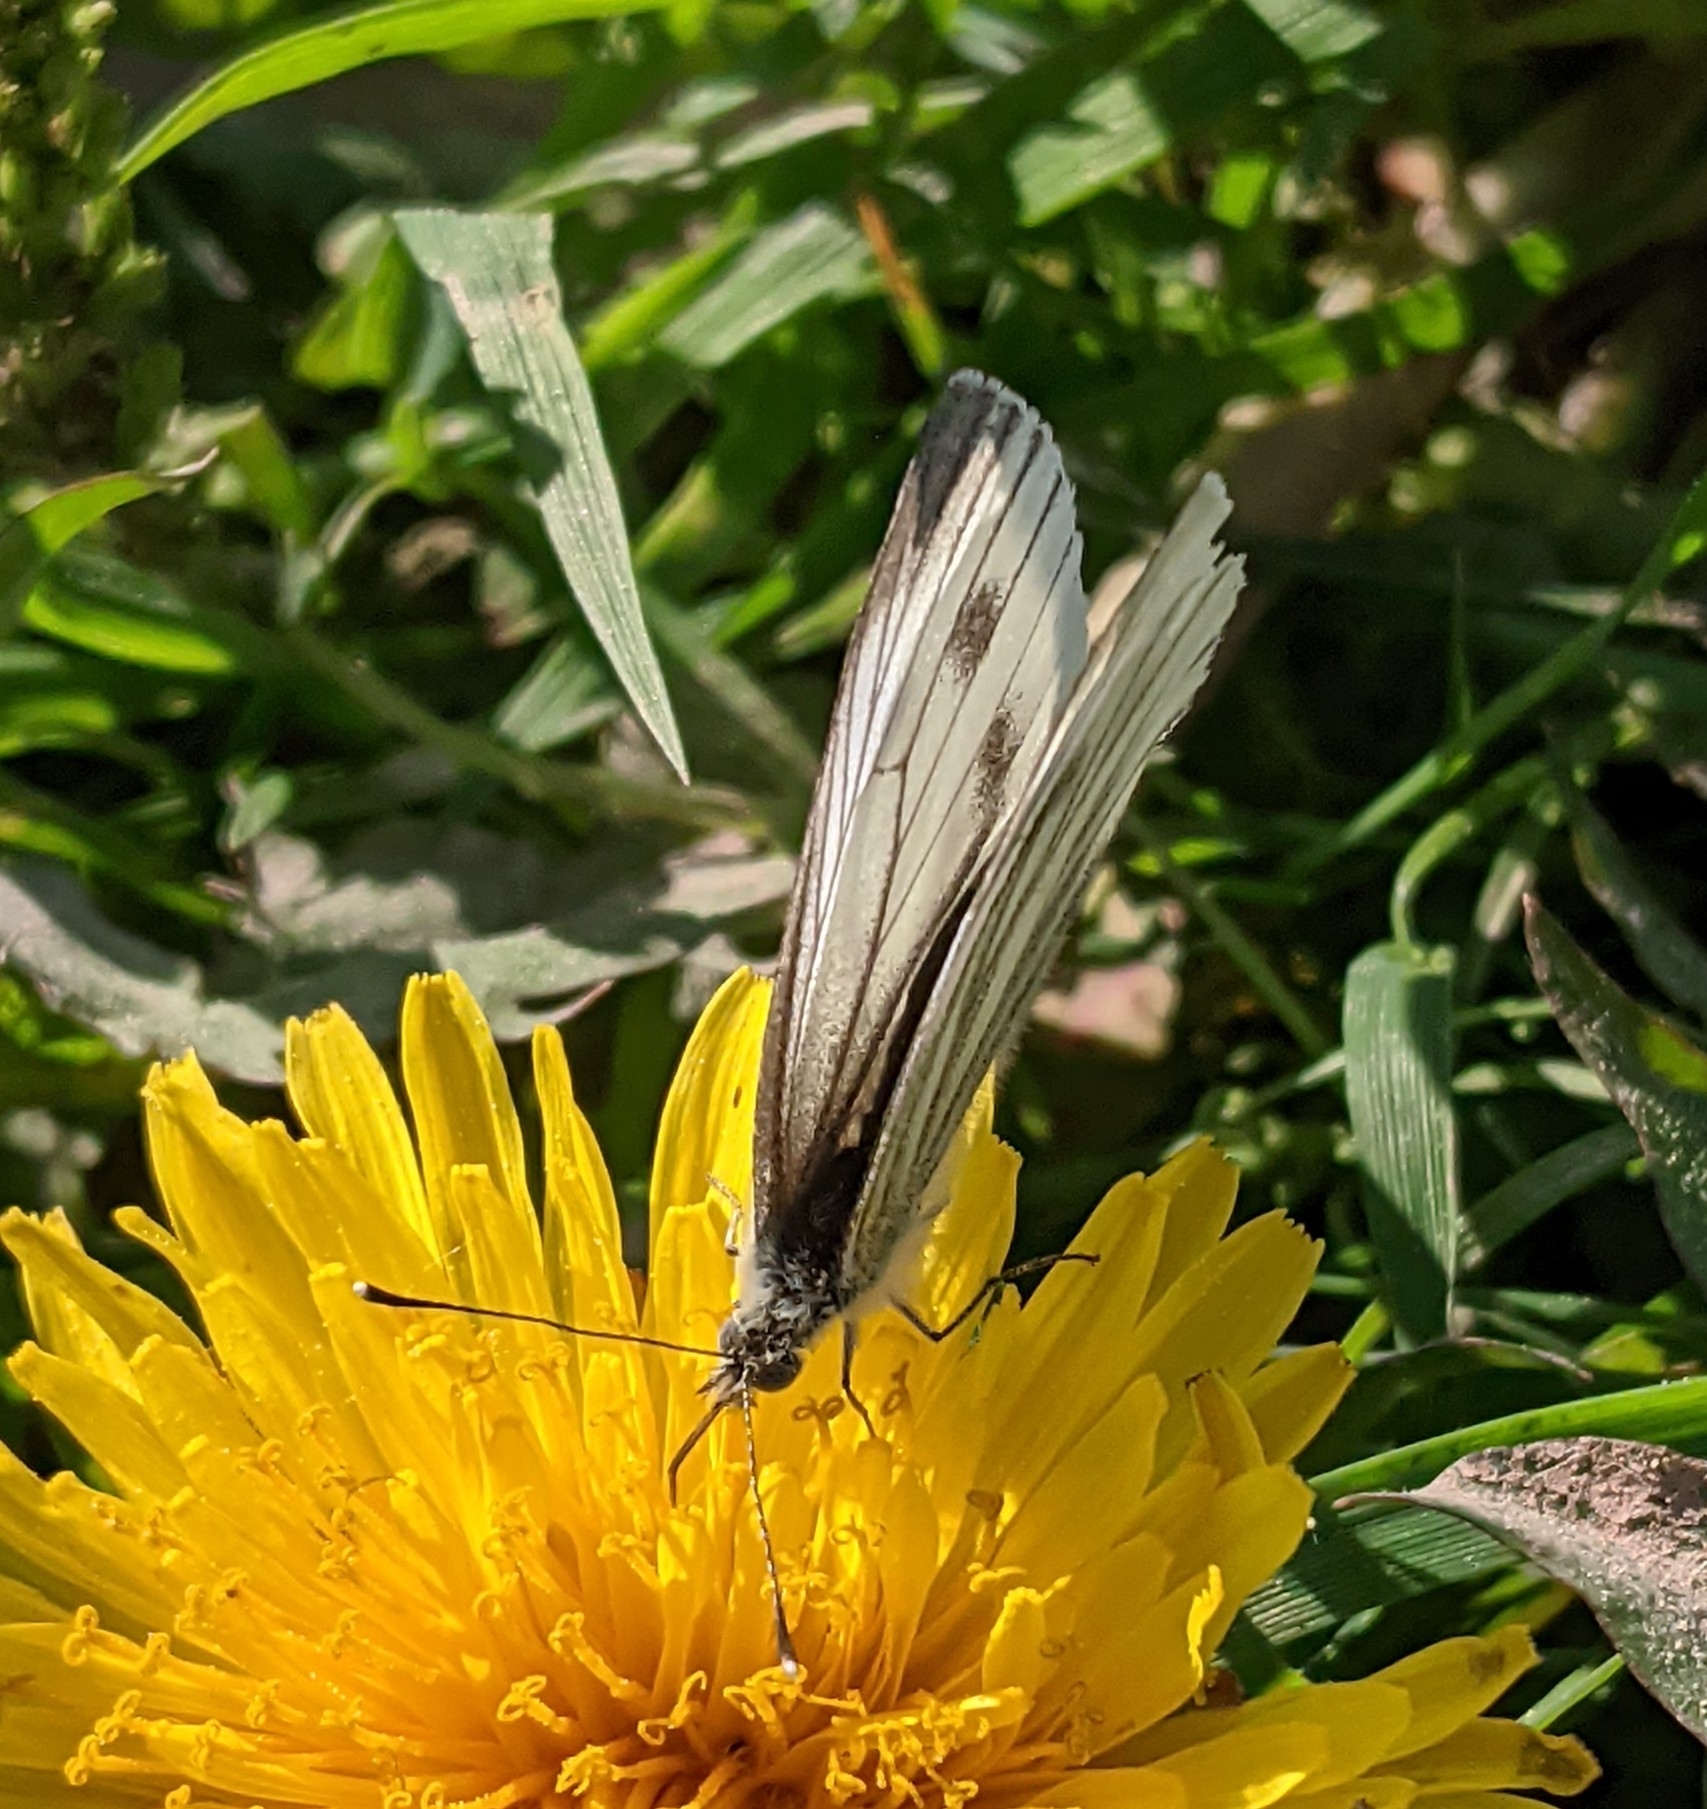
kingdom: Animalia
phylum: Arthropoda
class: Insecta
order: Lepidoptera
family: Pieridae
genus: Pieris
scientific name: Pieris napi
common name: Green-veined white
